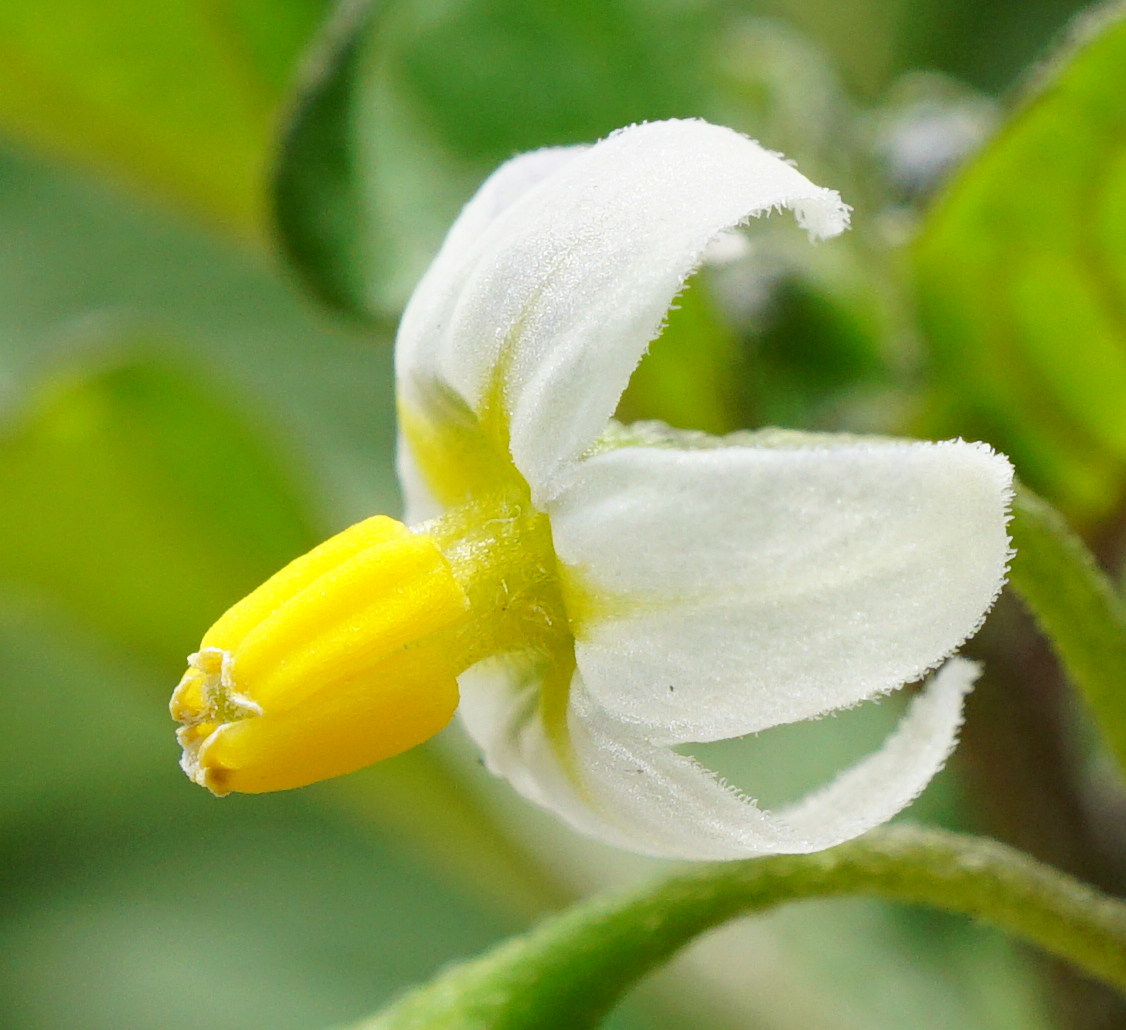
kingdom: Plantae
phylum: Tracheophyta
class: Magnoliopsida
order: Solanales
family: Solanaceae
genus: Solanum
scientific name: Solanum nigrum
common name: Black nightshade
